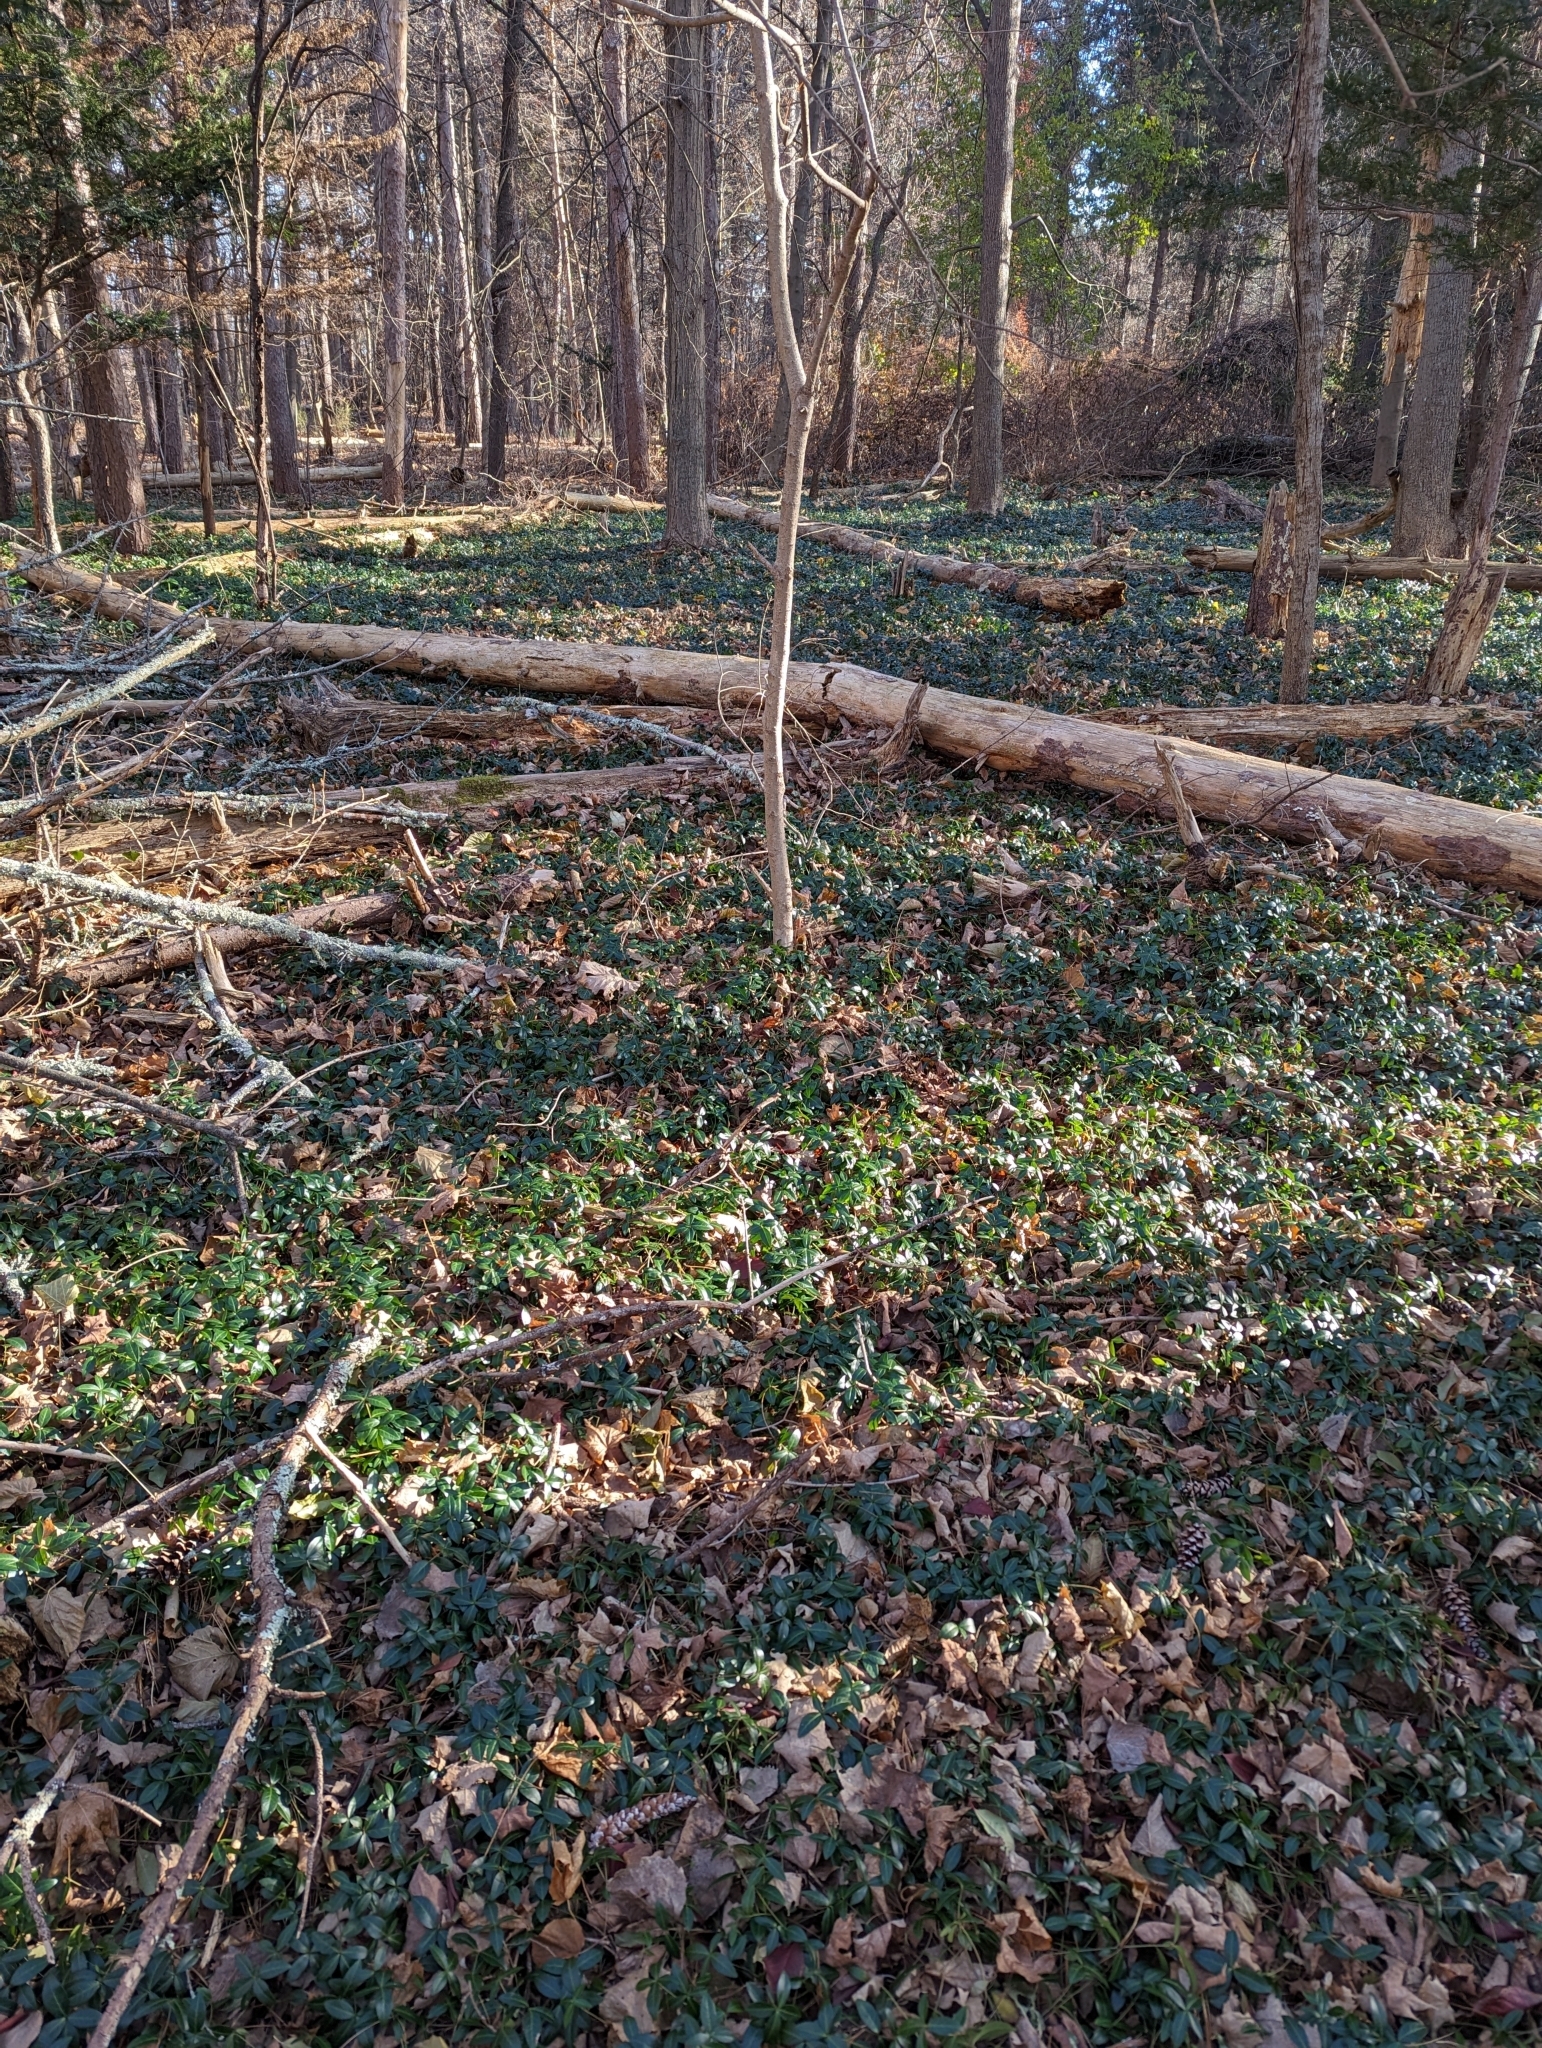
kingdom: Plantae
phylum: Tracheophyta
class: Magnoliopsida
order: Gentianales
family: Apocynaceae
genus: Vinca
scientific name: Vinca minor
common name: Lesser periwinkle
